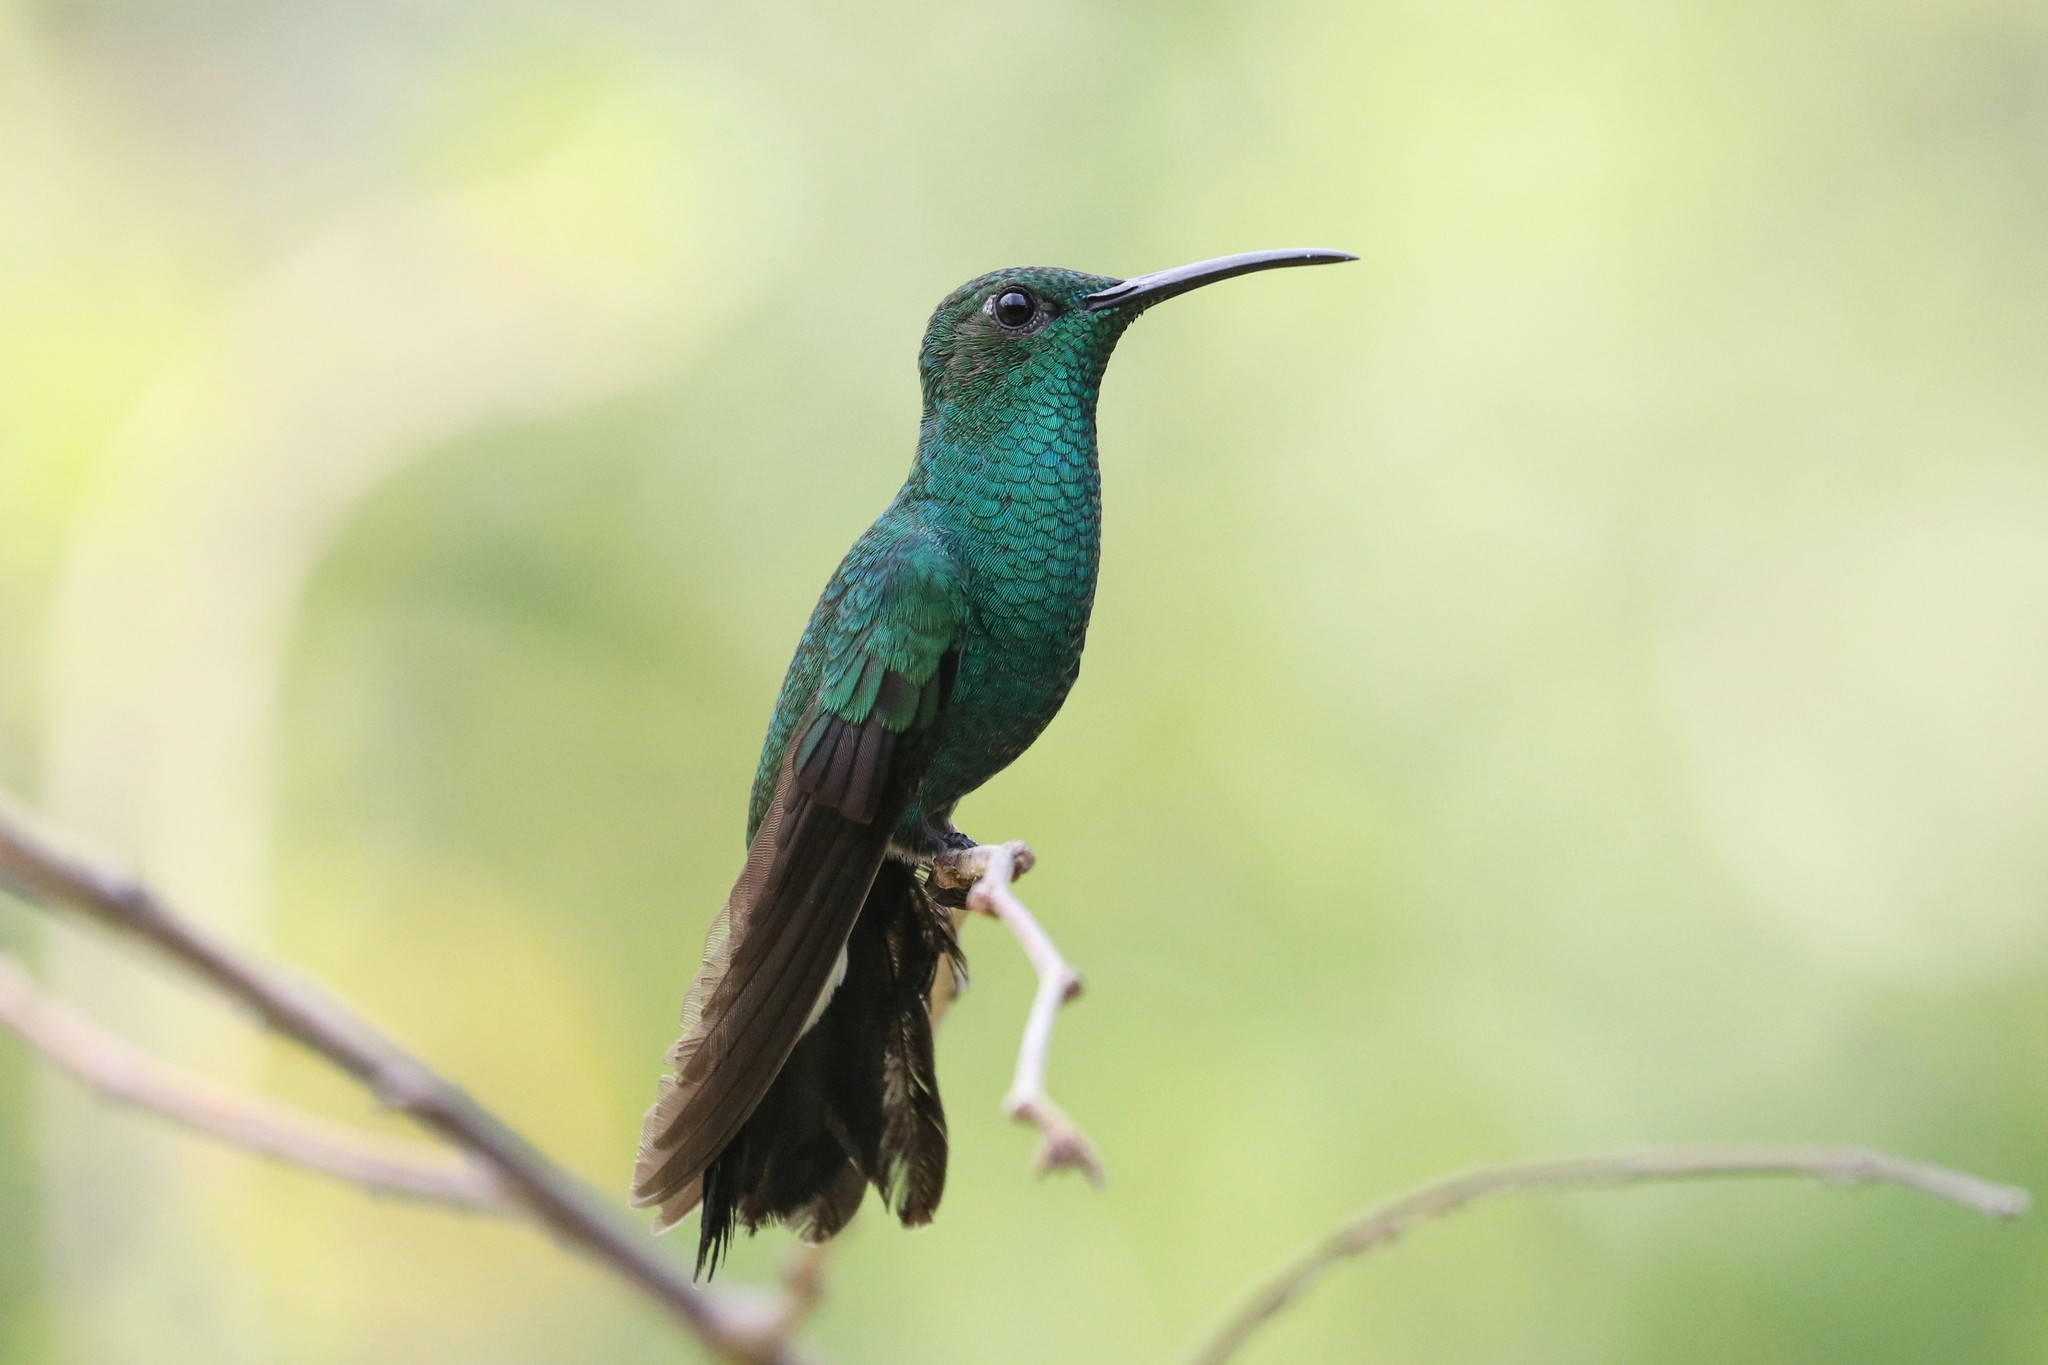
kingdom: Animalia
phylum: Chordata
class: Aves
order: Apodiformes
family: Trochilidae
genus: Chalybura
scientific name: Chalybura buffonii
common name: White-vented plumeleteer
